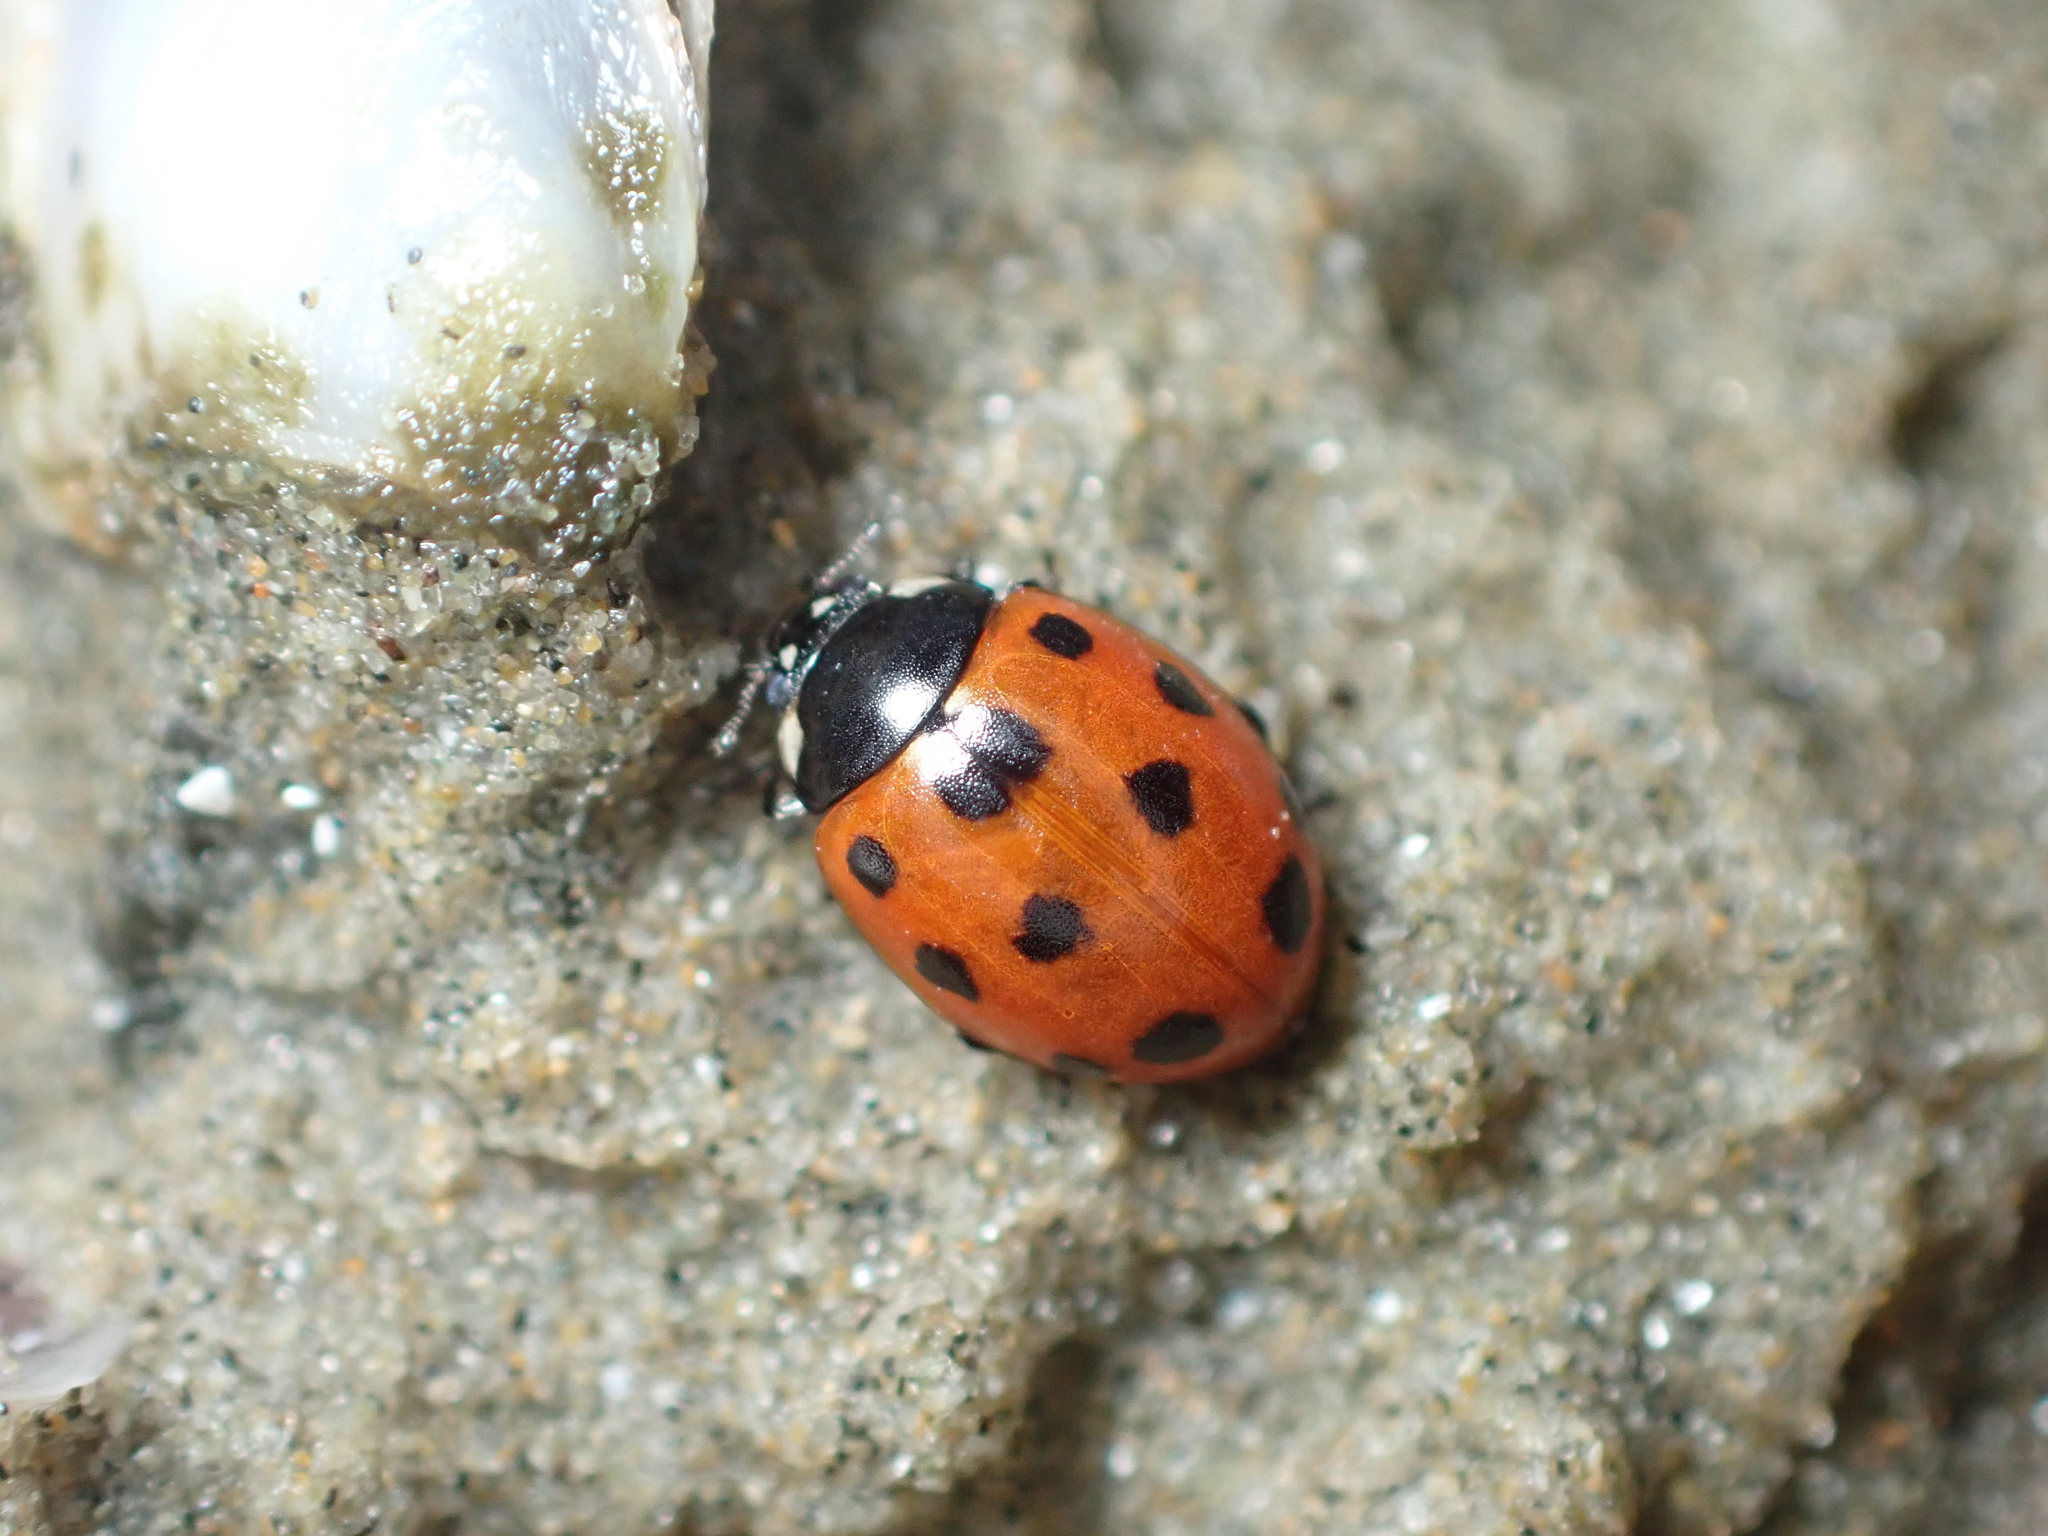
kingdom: Animalia
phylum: Arthropoda
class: Insecta
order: Coleoptera
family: Coccinellidae
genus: Coccinella
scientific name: Coccinella undecimpunctata
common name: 11-spot ladybird
